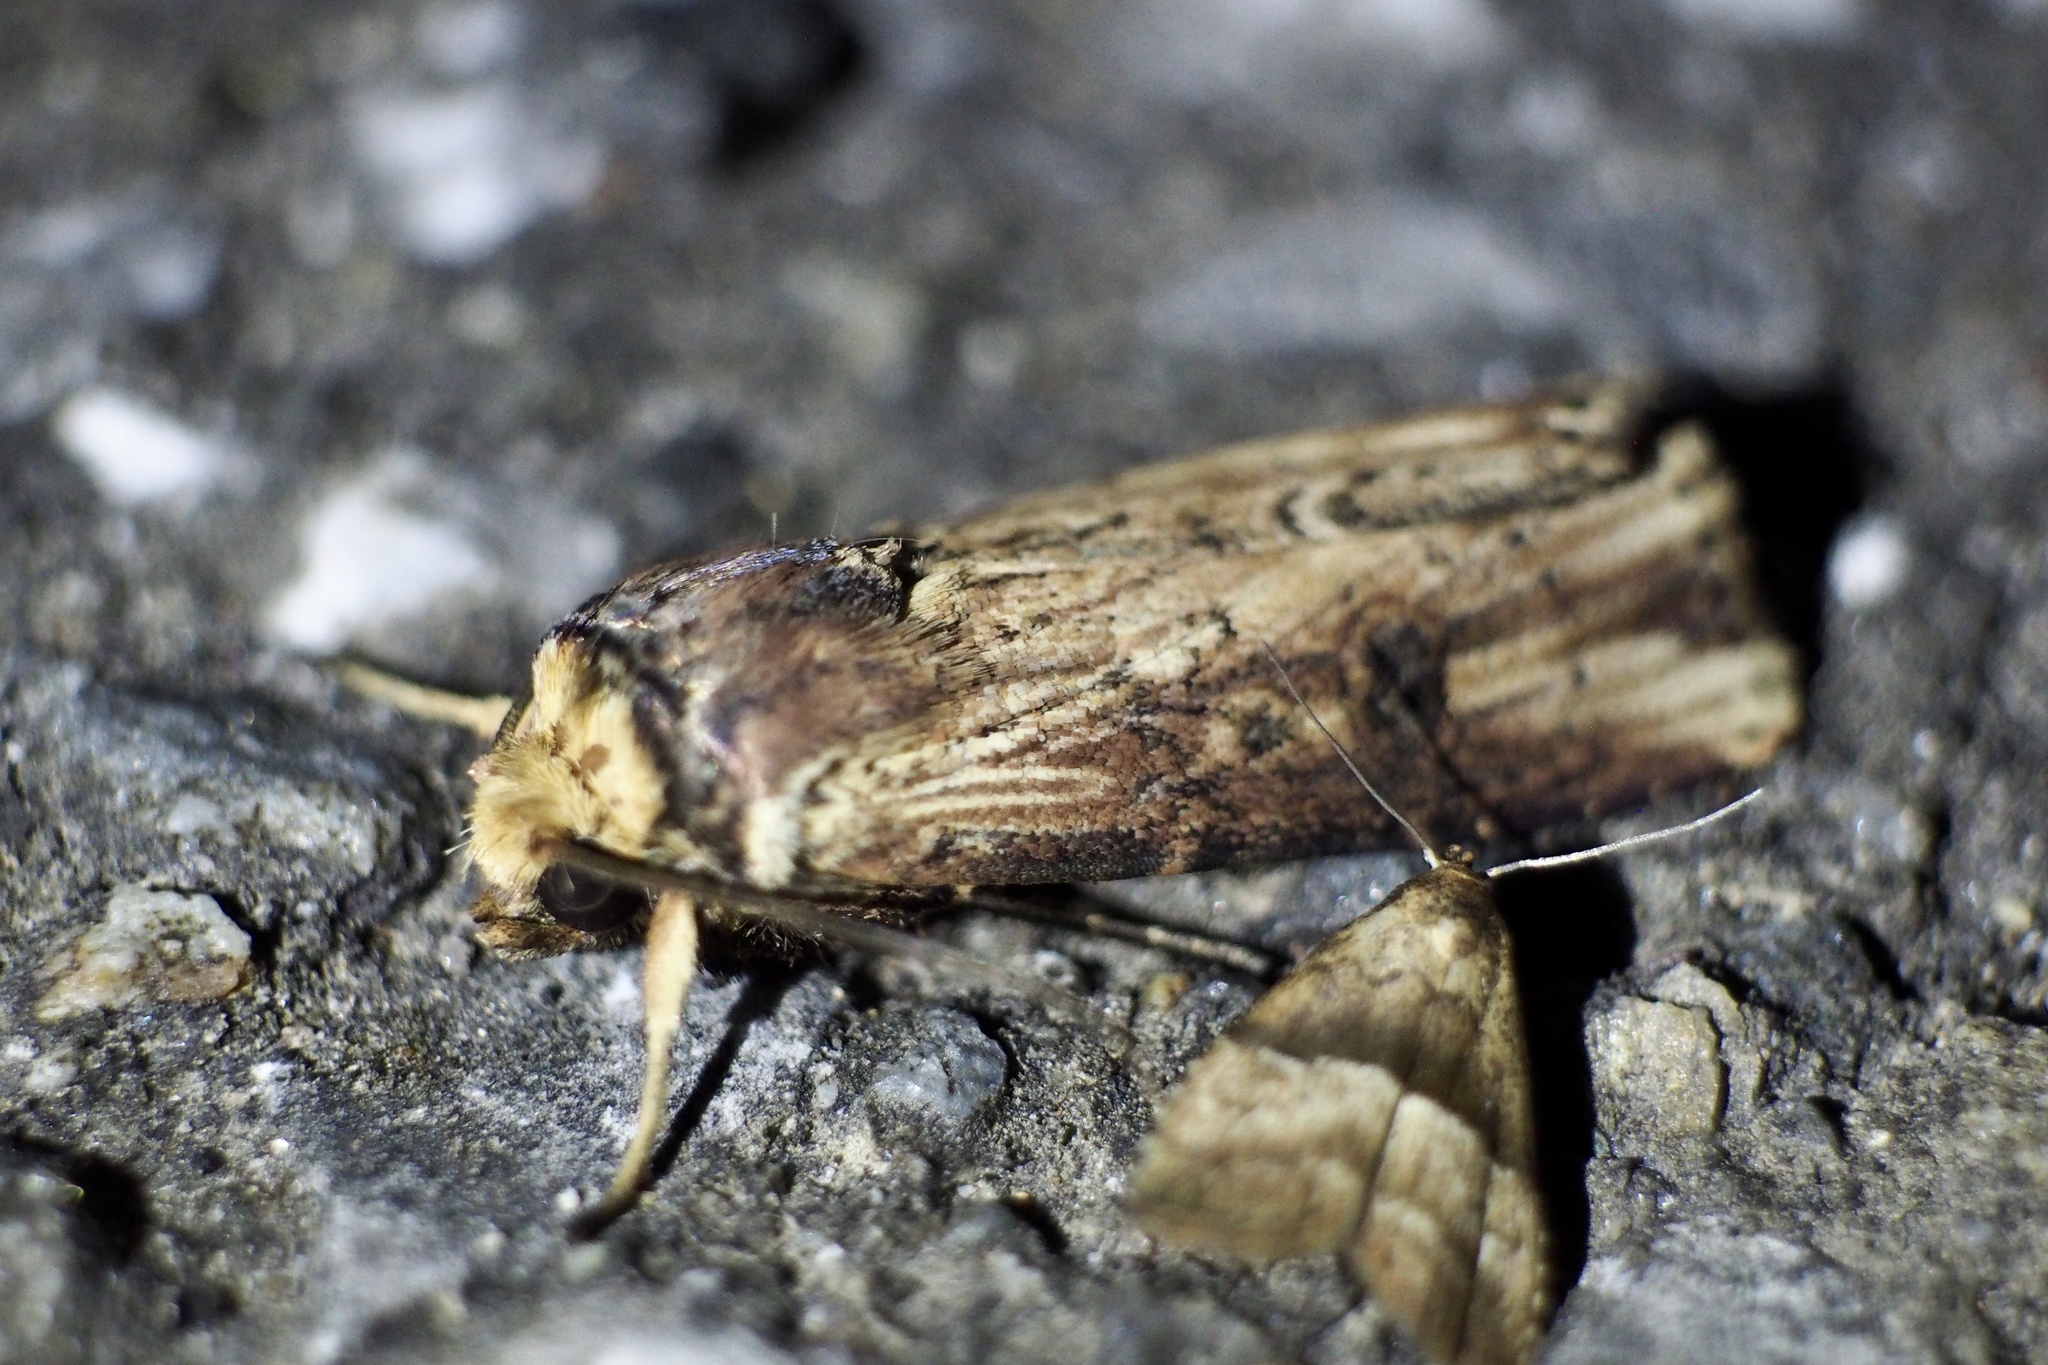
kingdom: Animalia
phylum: Arthropoda
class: Insecta
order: Lepidoptera
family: Noctuidae
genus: Axylia
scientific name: Axylia putris
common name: Flame
